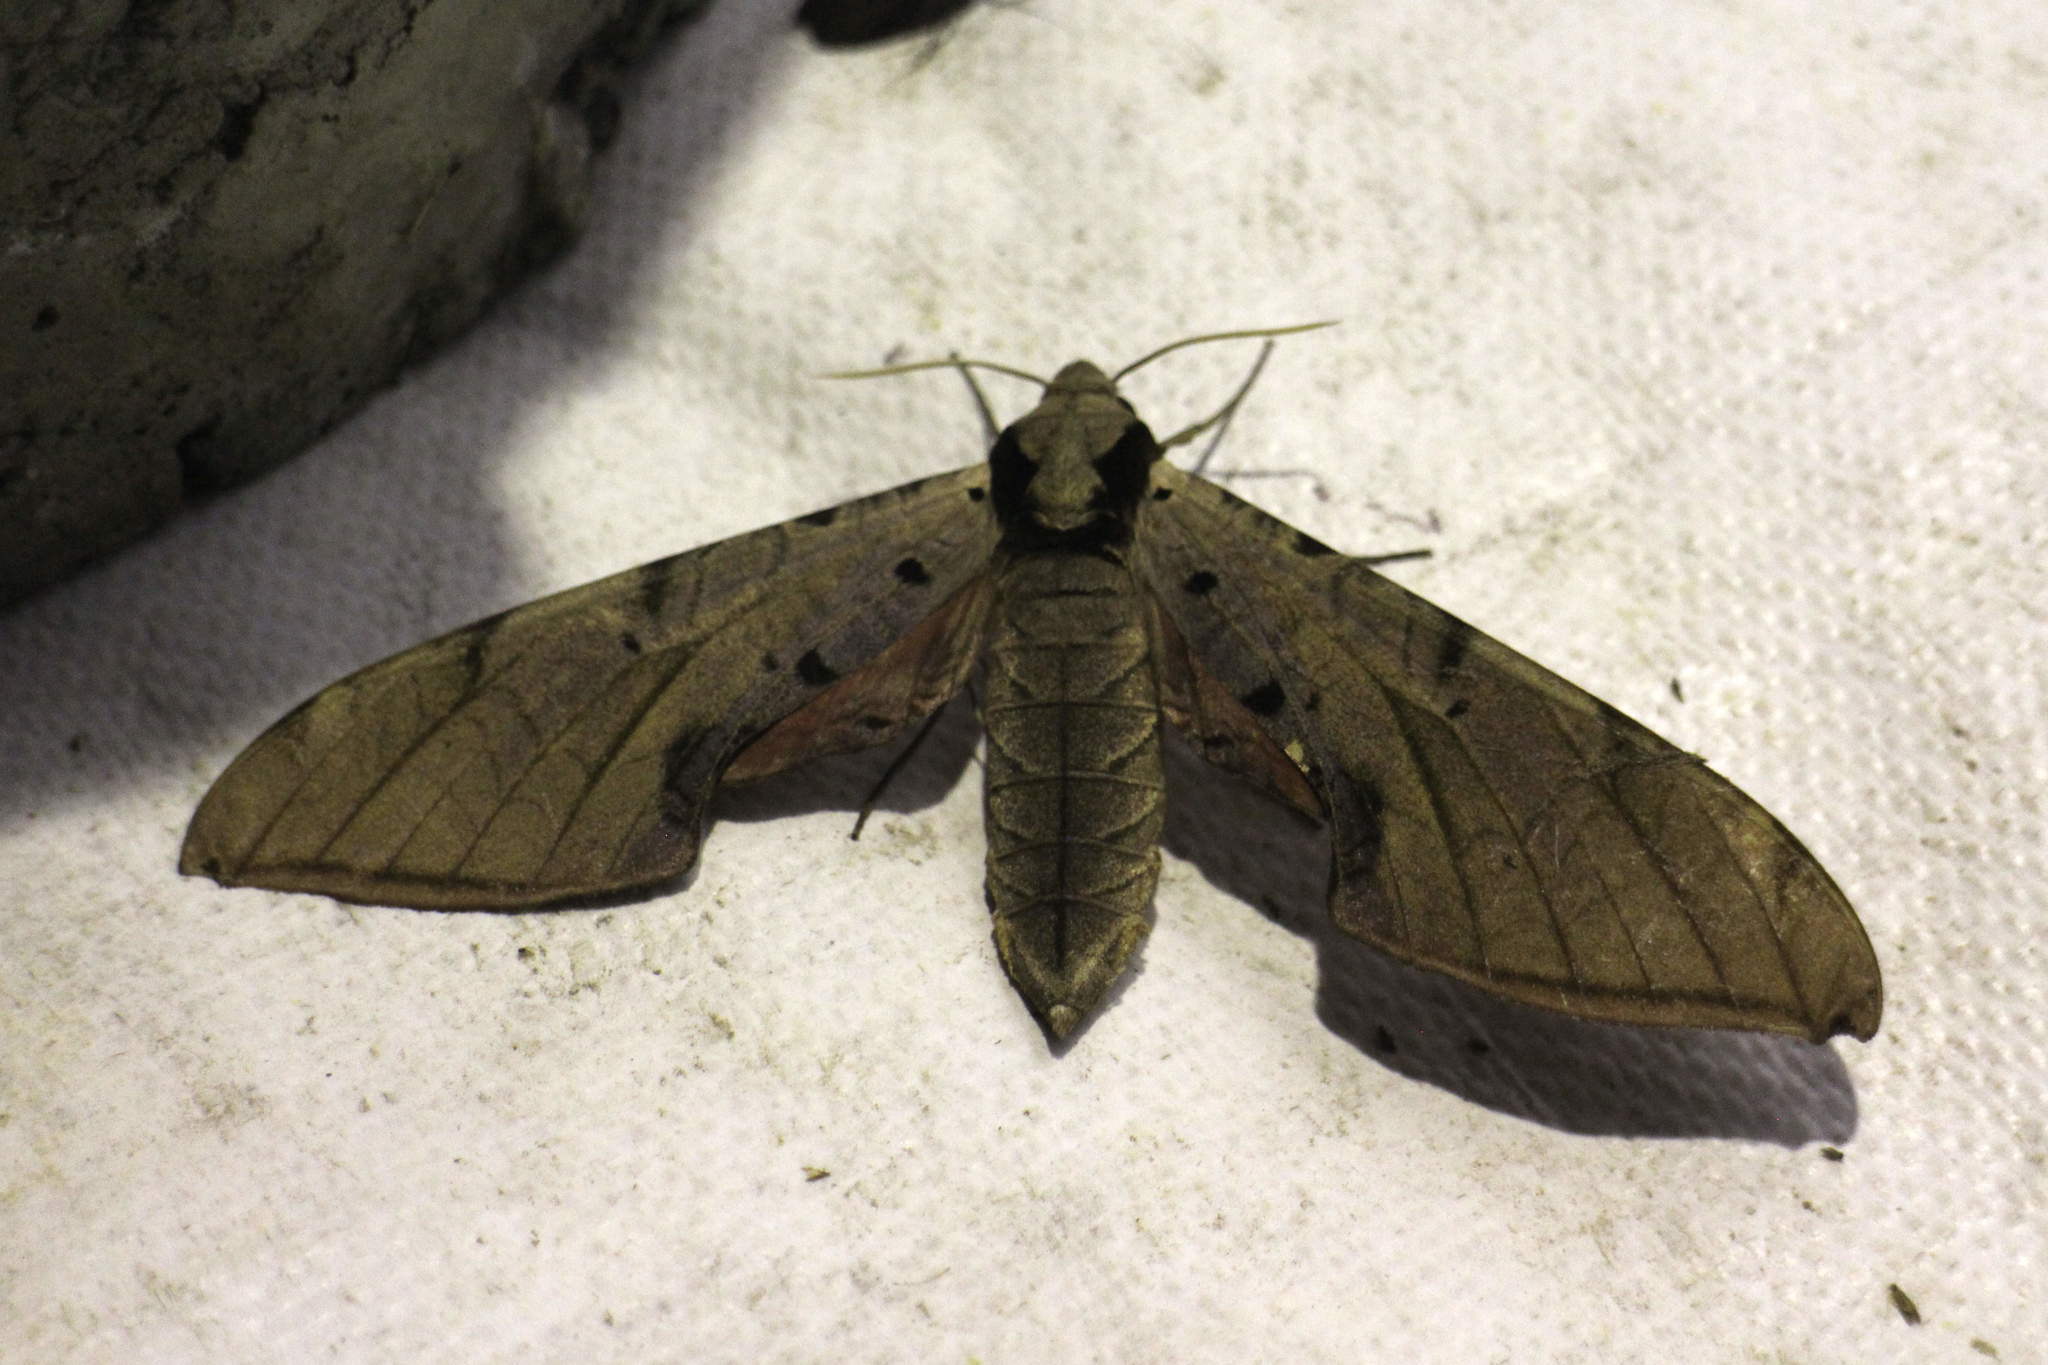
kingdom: Animalia
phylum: Arthropoda
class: Insecta
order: Lepidoptera
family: Sphingidae
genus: Protambulyx
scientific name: Protambulyx strigilis
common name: Streaked sphinx
